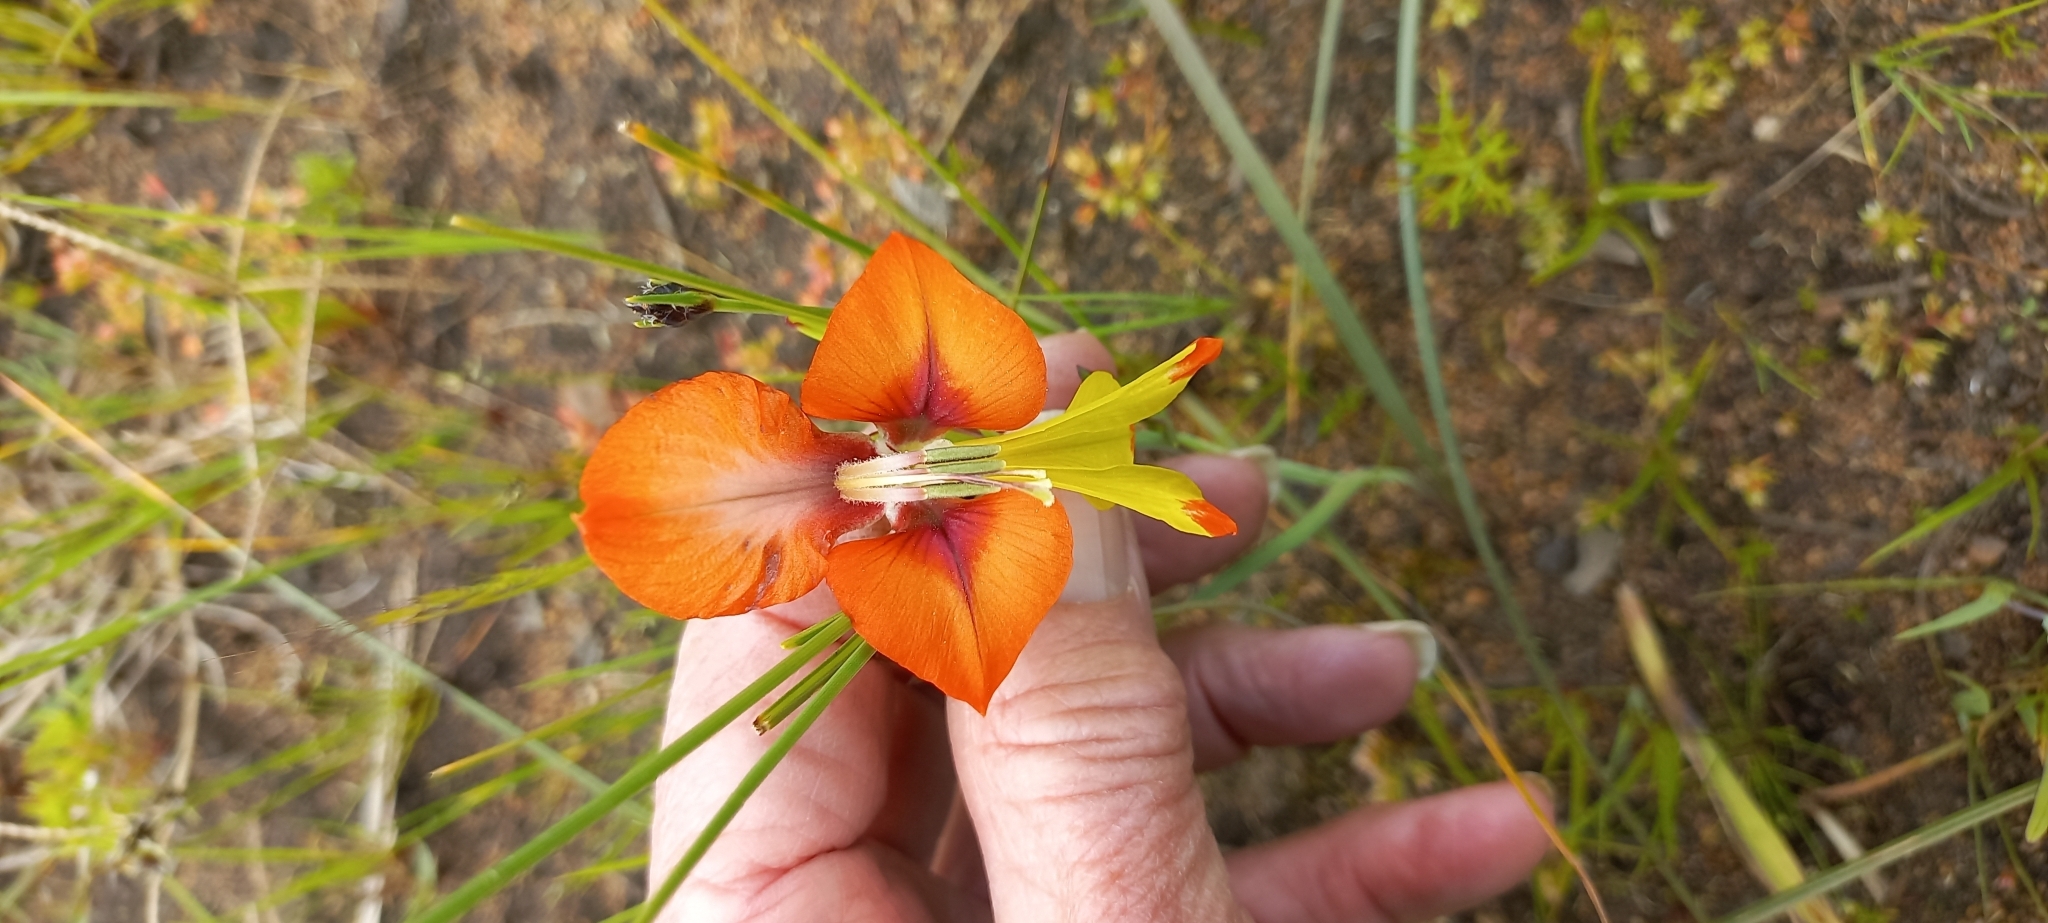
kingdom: Plantae
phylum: Tracheophyta
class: Liliopsida
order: Asparagales
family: Iridaceae
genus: Gladiolus
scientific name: Gladiolus alatus
